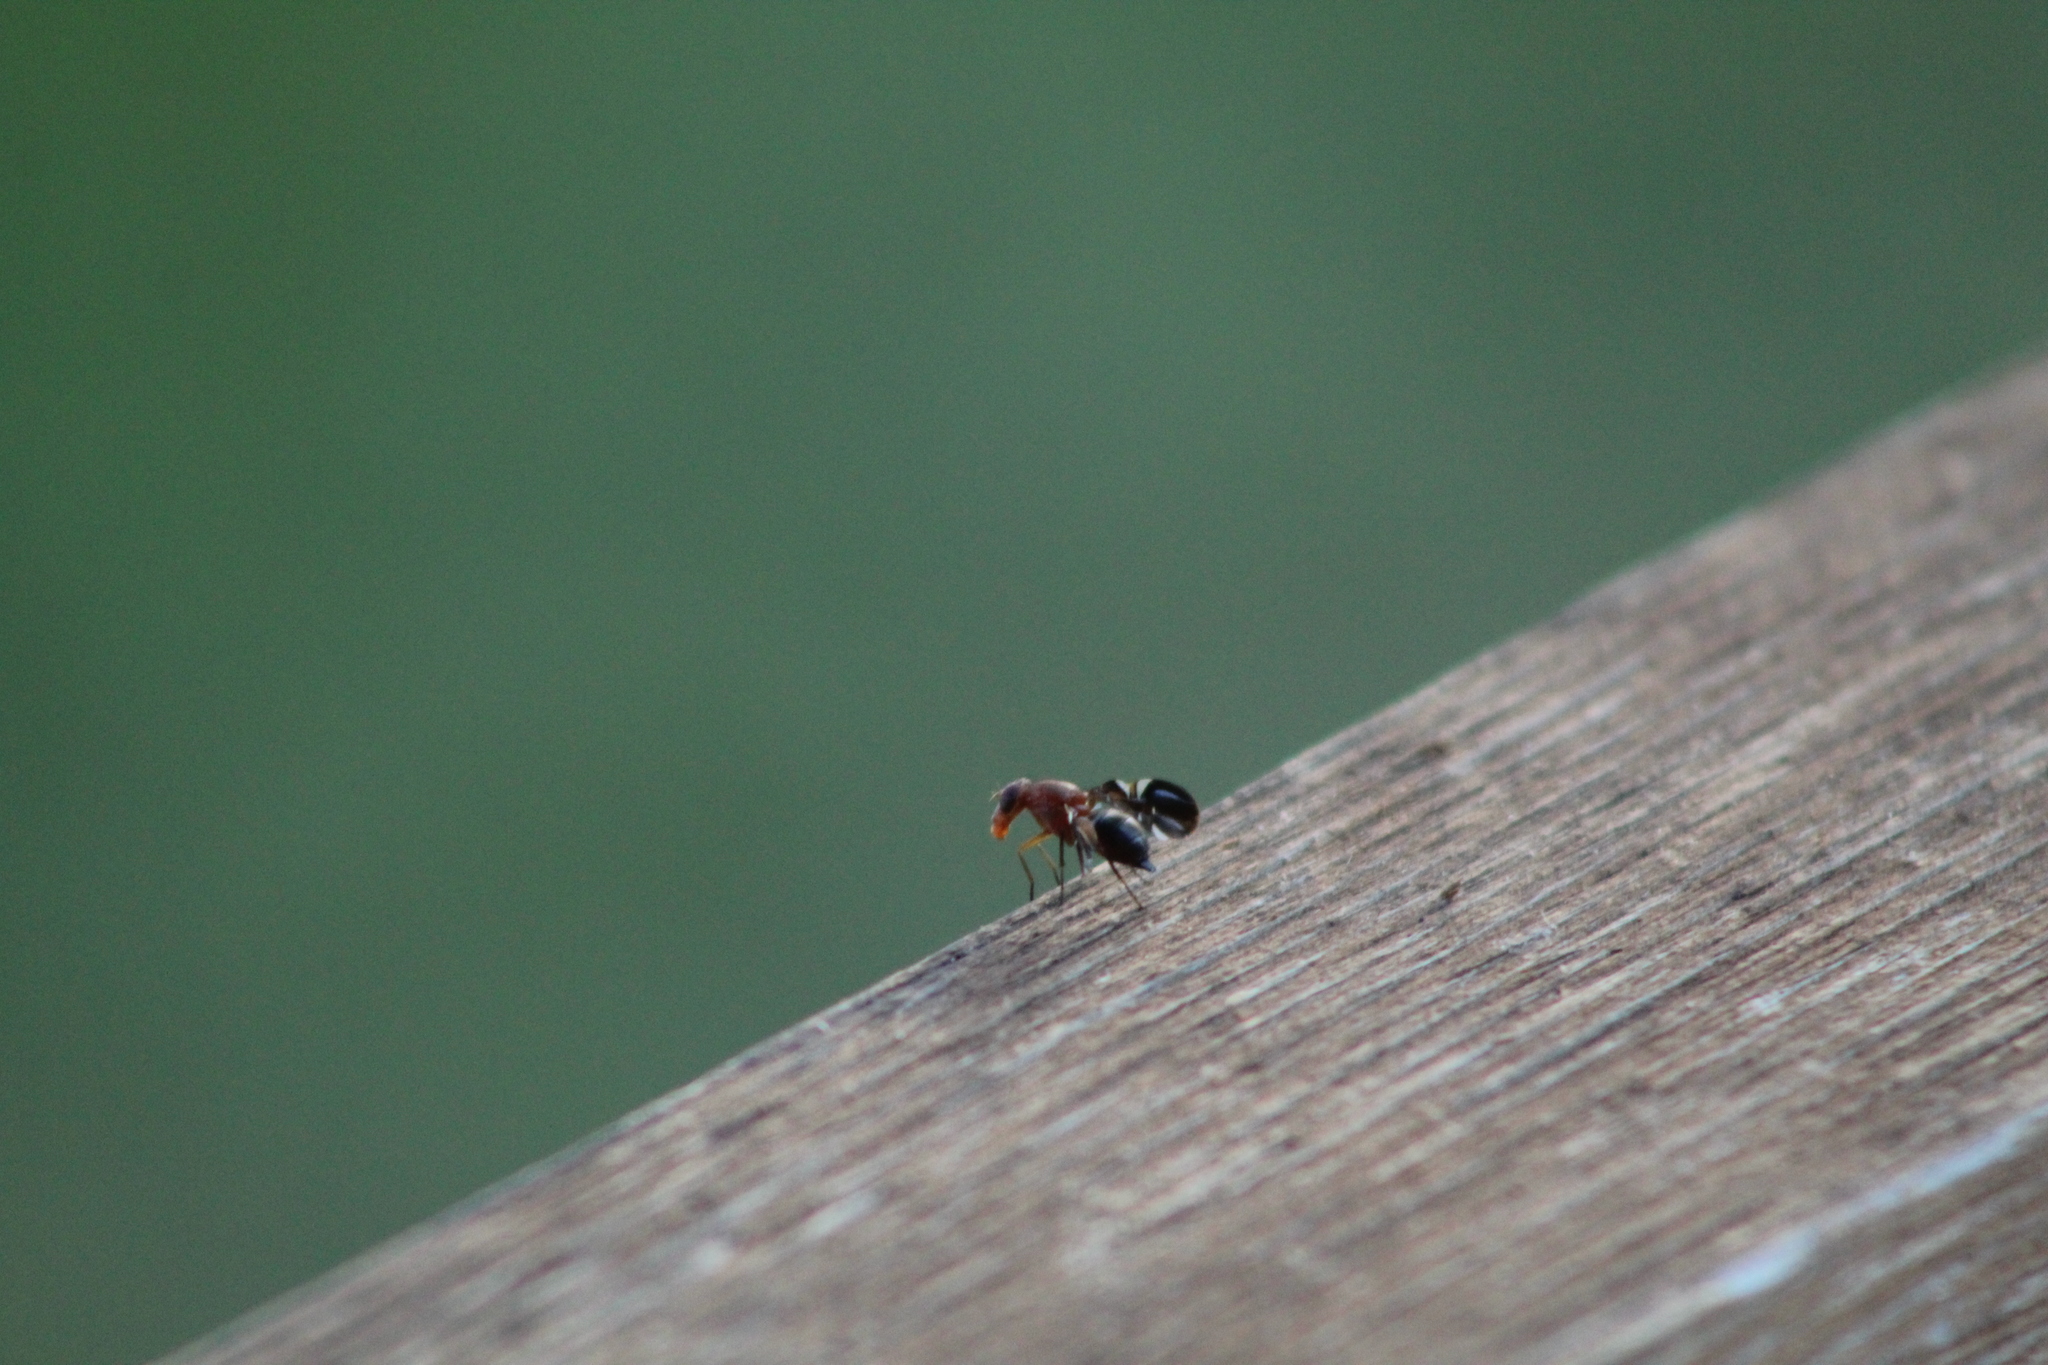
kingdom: Animalia
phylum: Arthropoda
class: Insecta
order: Diptera
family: Ulidiidae
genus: Delphinia
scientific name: Delphinia picta
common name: Common picture-winged fly
